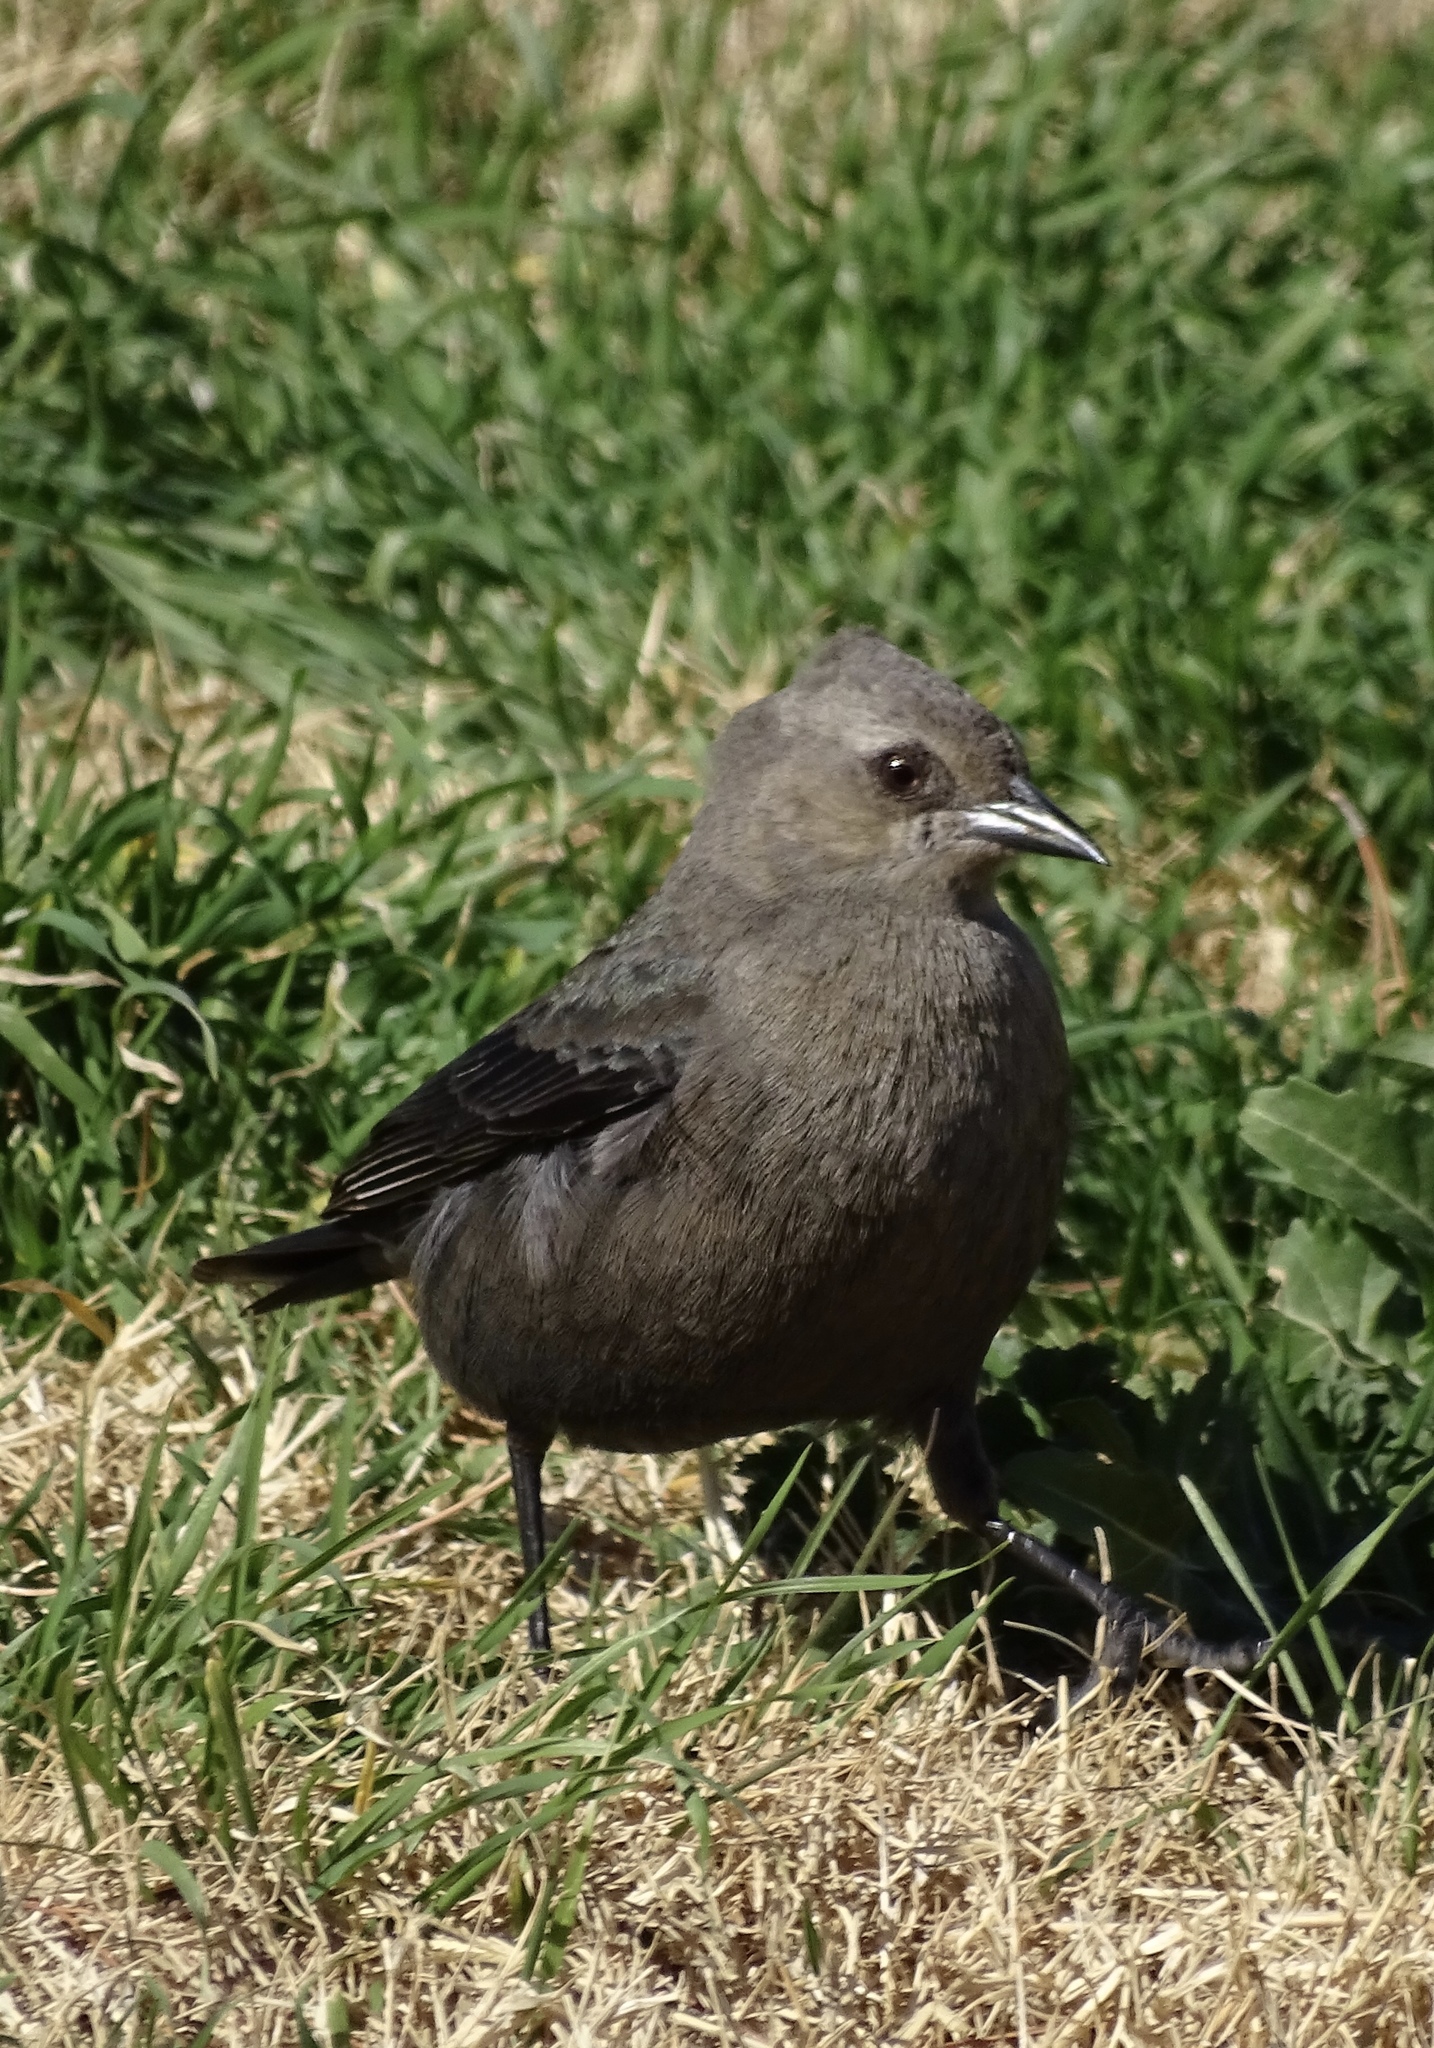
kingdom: Animalia
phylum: Chordata
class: Aves
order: Passeriformes
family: Icteridae
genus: Euphagus
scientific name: Euphagus cyanocephalus
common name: Brewer's blackbird
